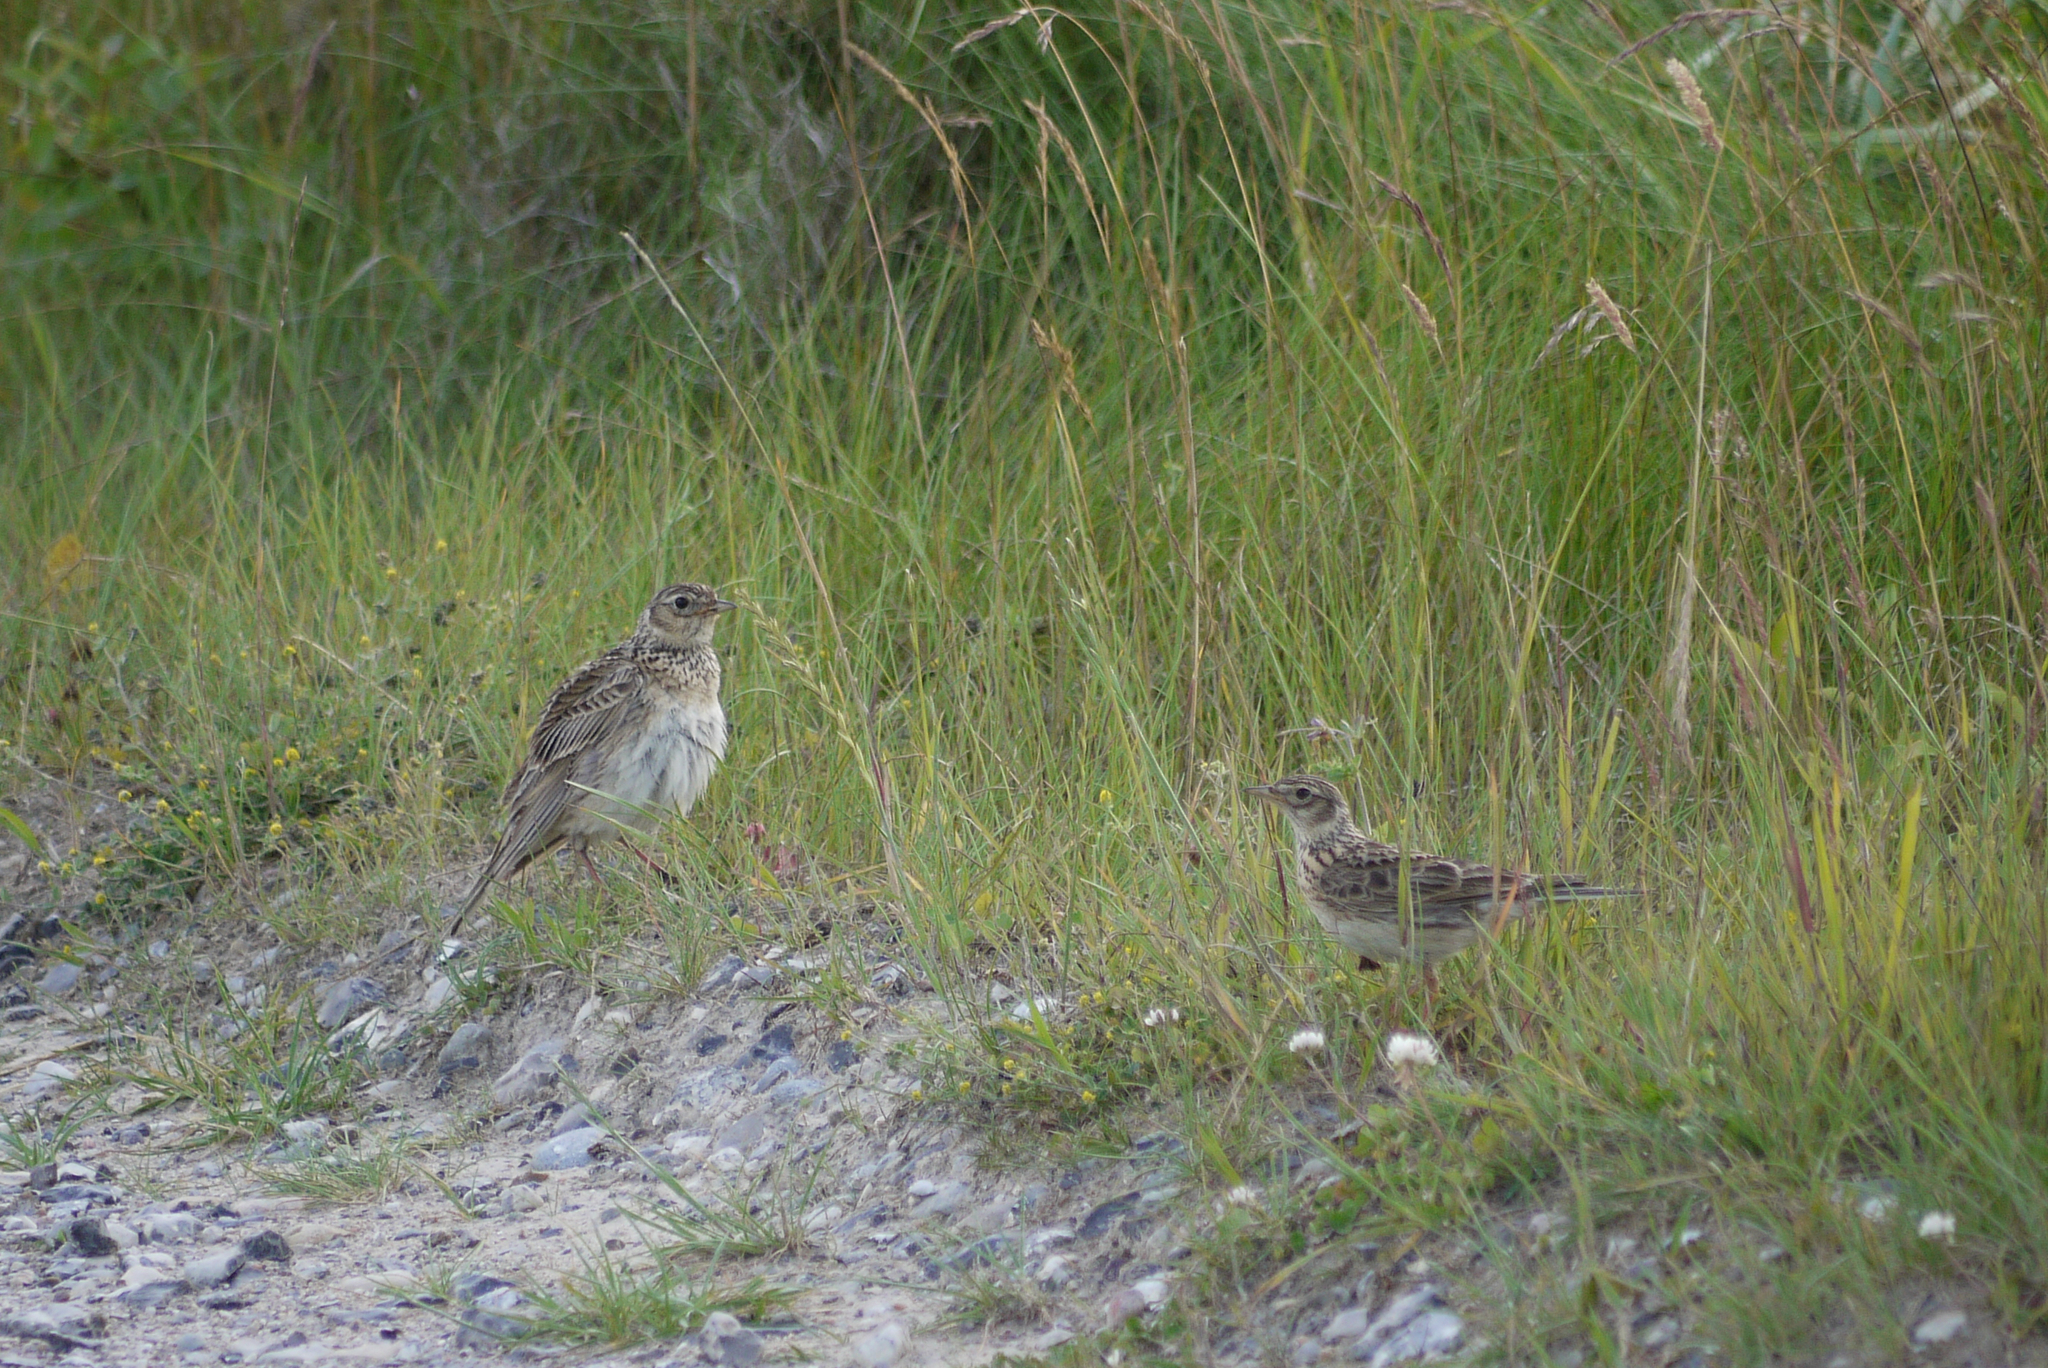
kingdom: Animalia
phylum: Chordata
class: Aves
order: Passeriformes
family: Alaudidae
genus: Alauda
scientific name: Alauda arvensis
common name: Eurasian skylark
